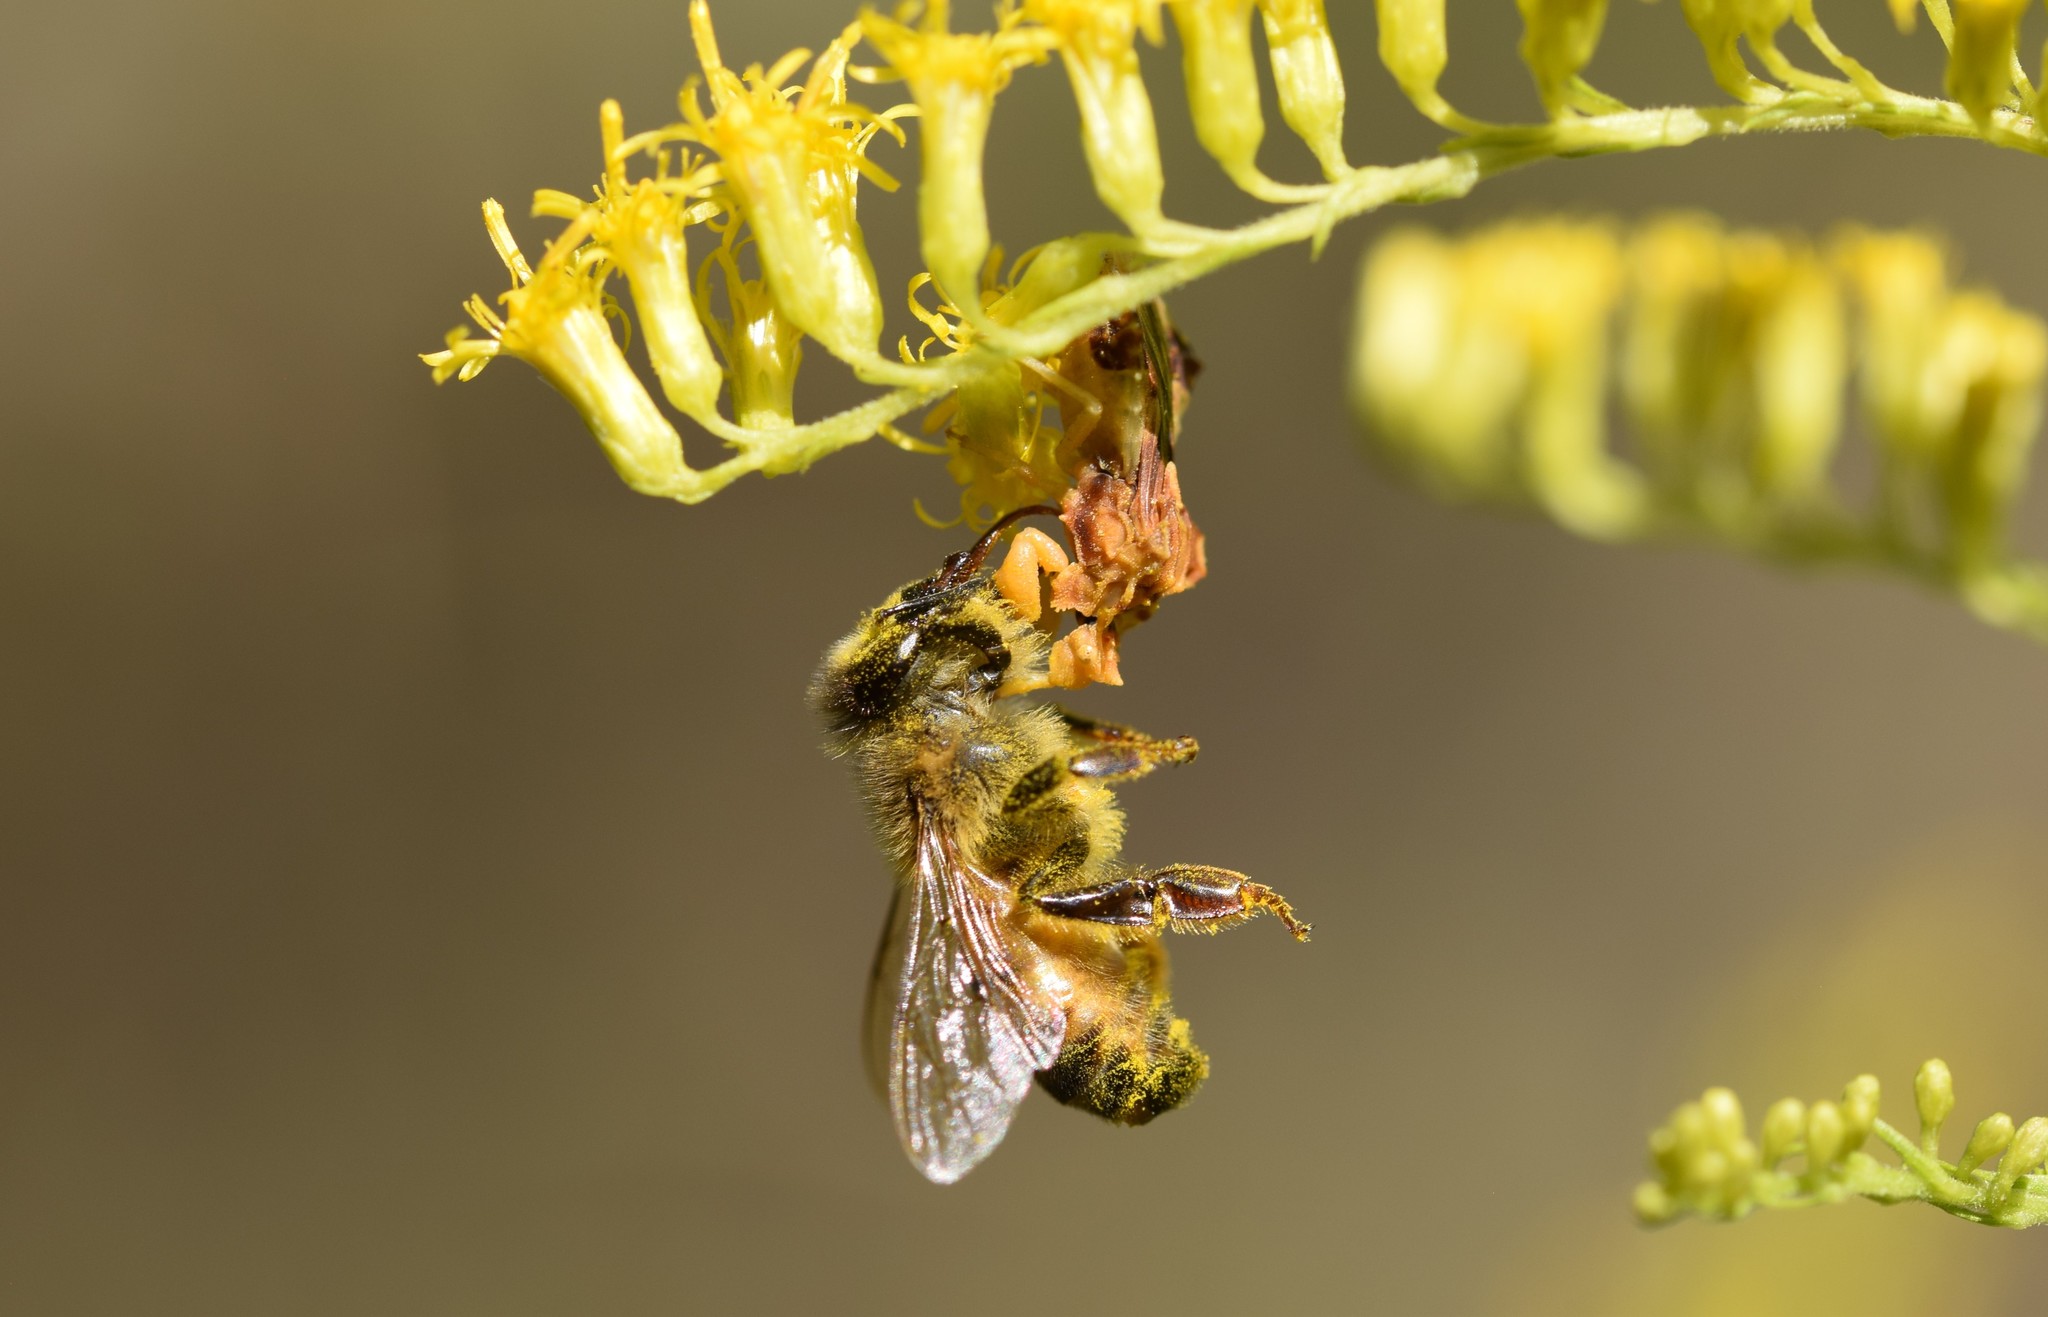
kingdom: Animalia
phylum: Arthropoda
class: Insecta
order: Hemiptera
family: Reduviidae
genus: Phymata
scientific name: Phymata fasciata
